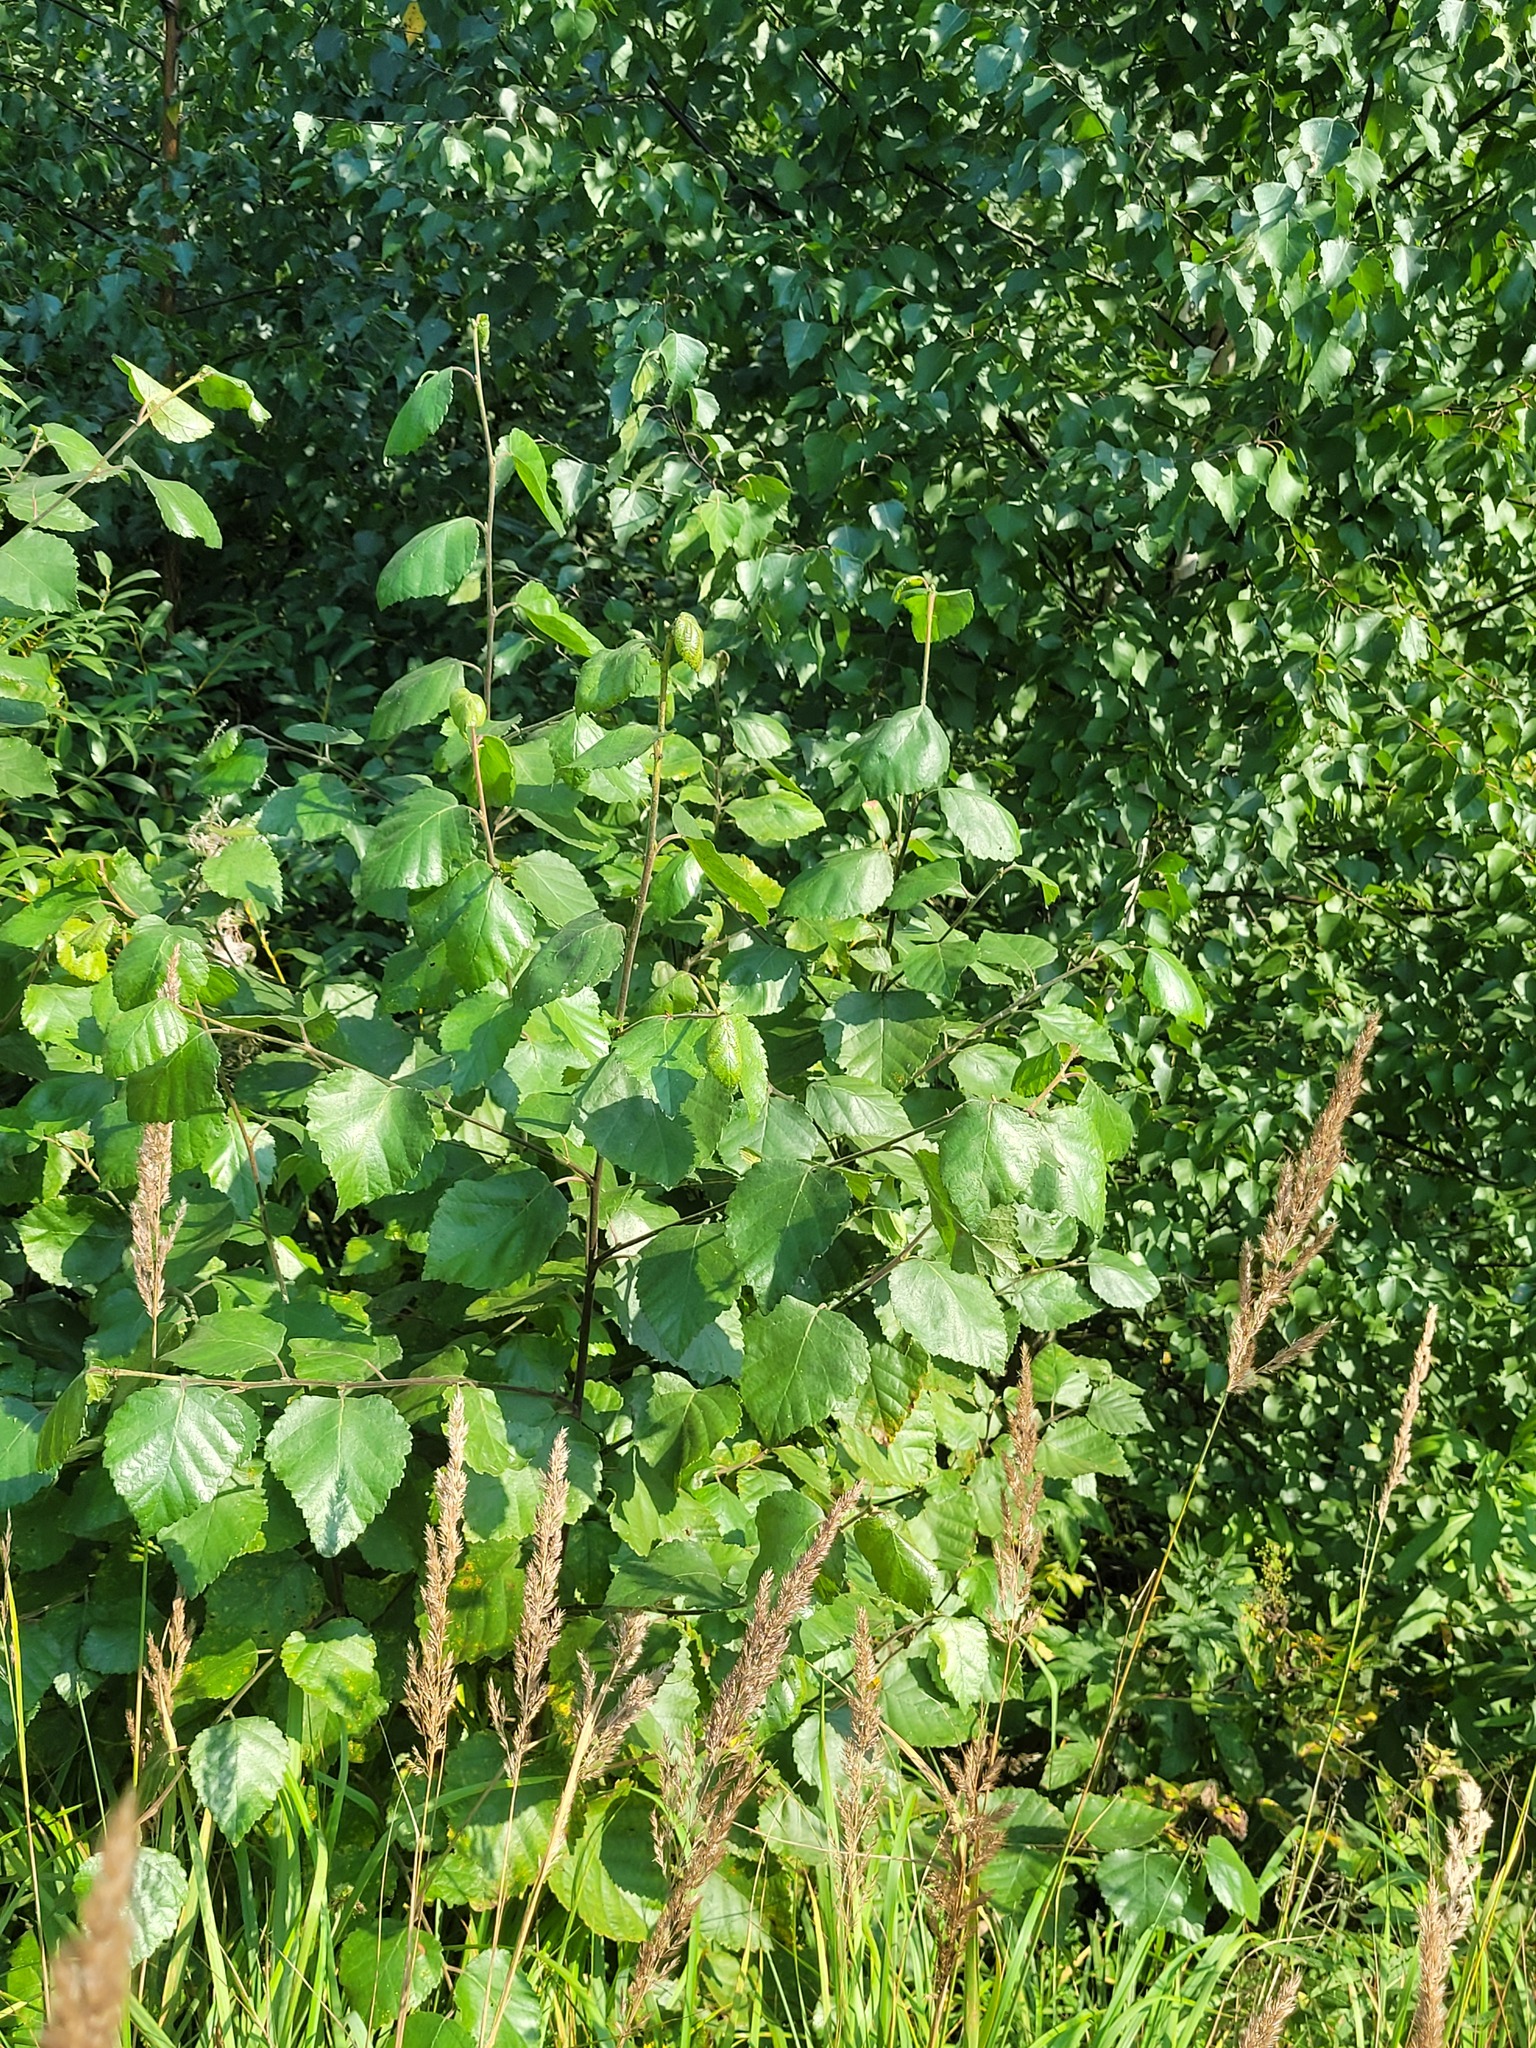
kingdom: Plantae
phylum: Tracheophyta
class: Magnoliopsida
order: Fagales
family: Betulaceae
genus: Betula
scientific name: Betula pubescens
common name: Downy birch
